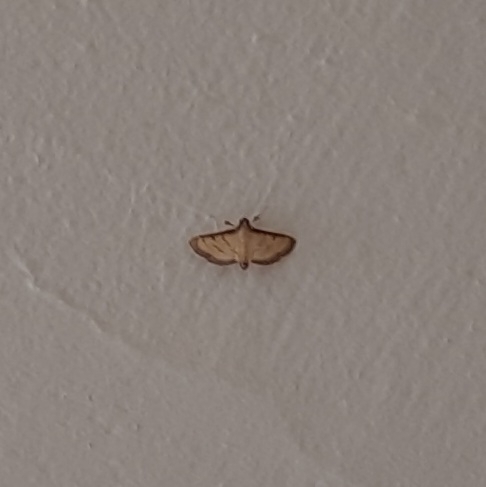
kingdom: Animalia
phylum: Arthropoda
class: Insecta
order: Lepidoptera
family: Crambidae
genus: Cnaphalocrocis
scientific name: Cnaphalocrocis medinalis
